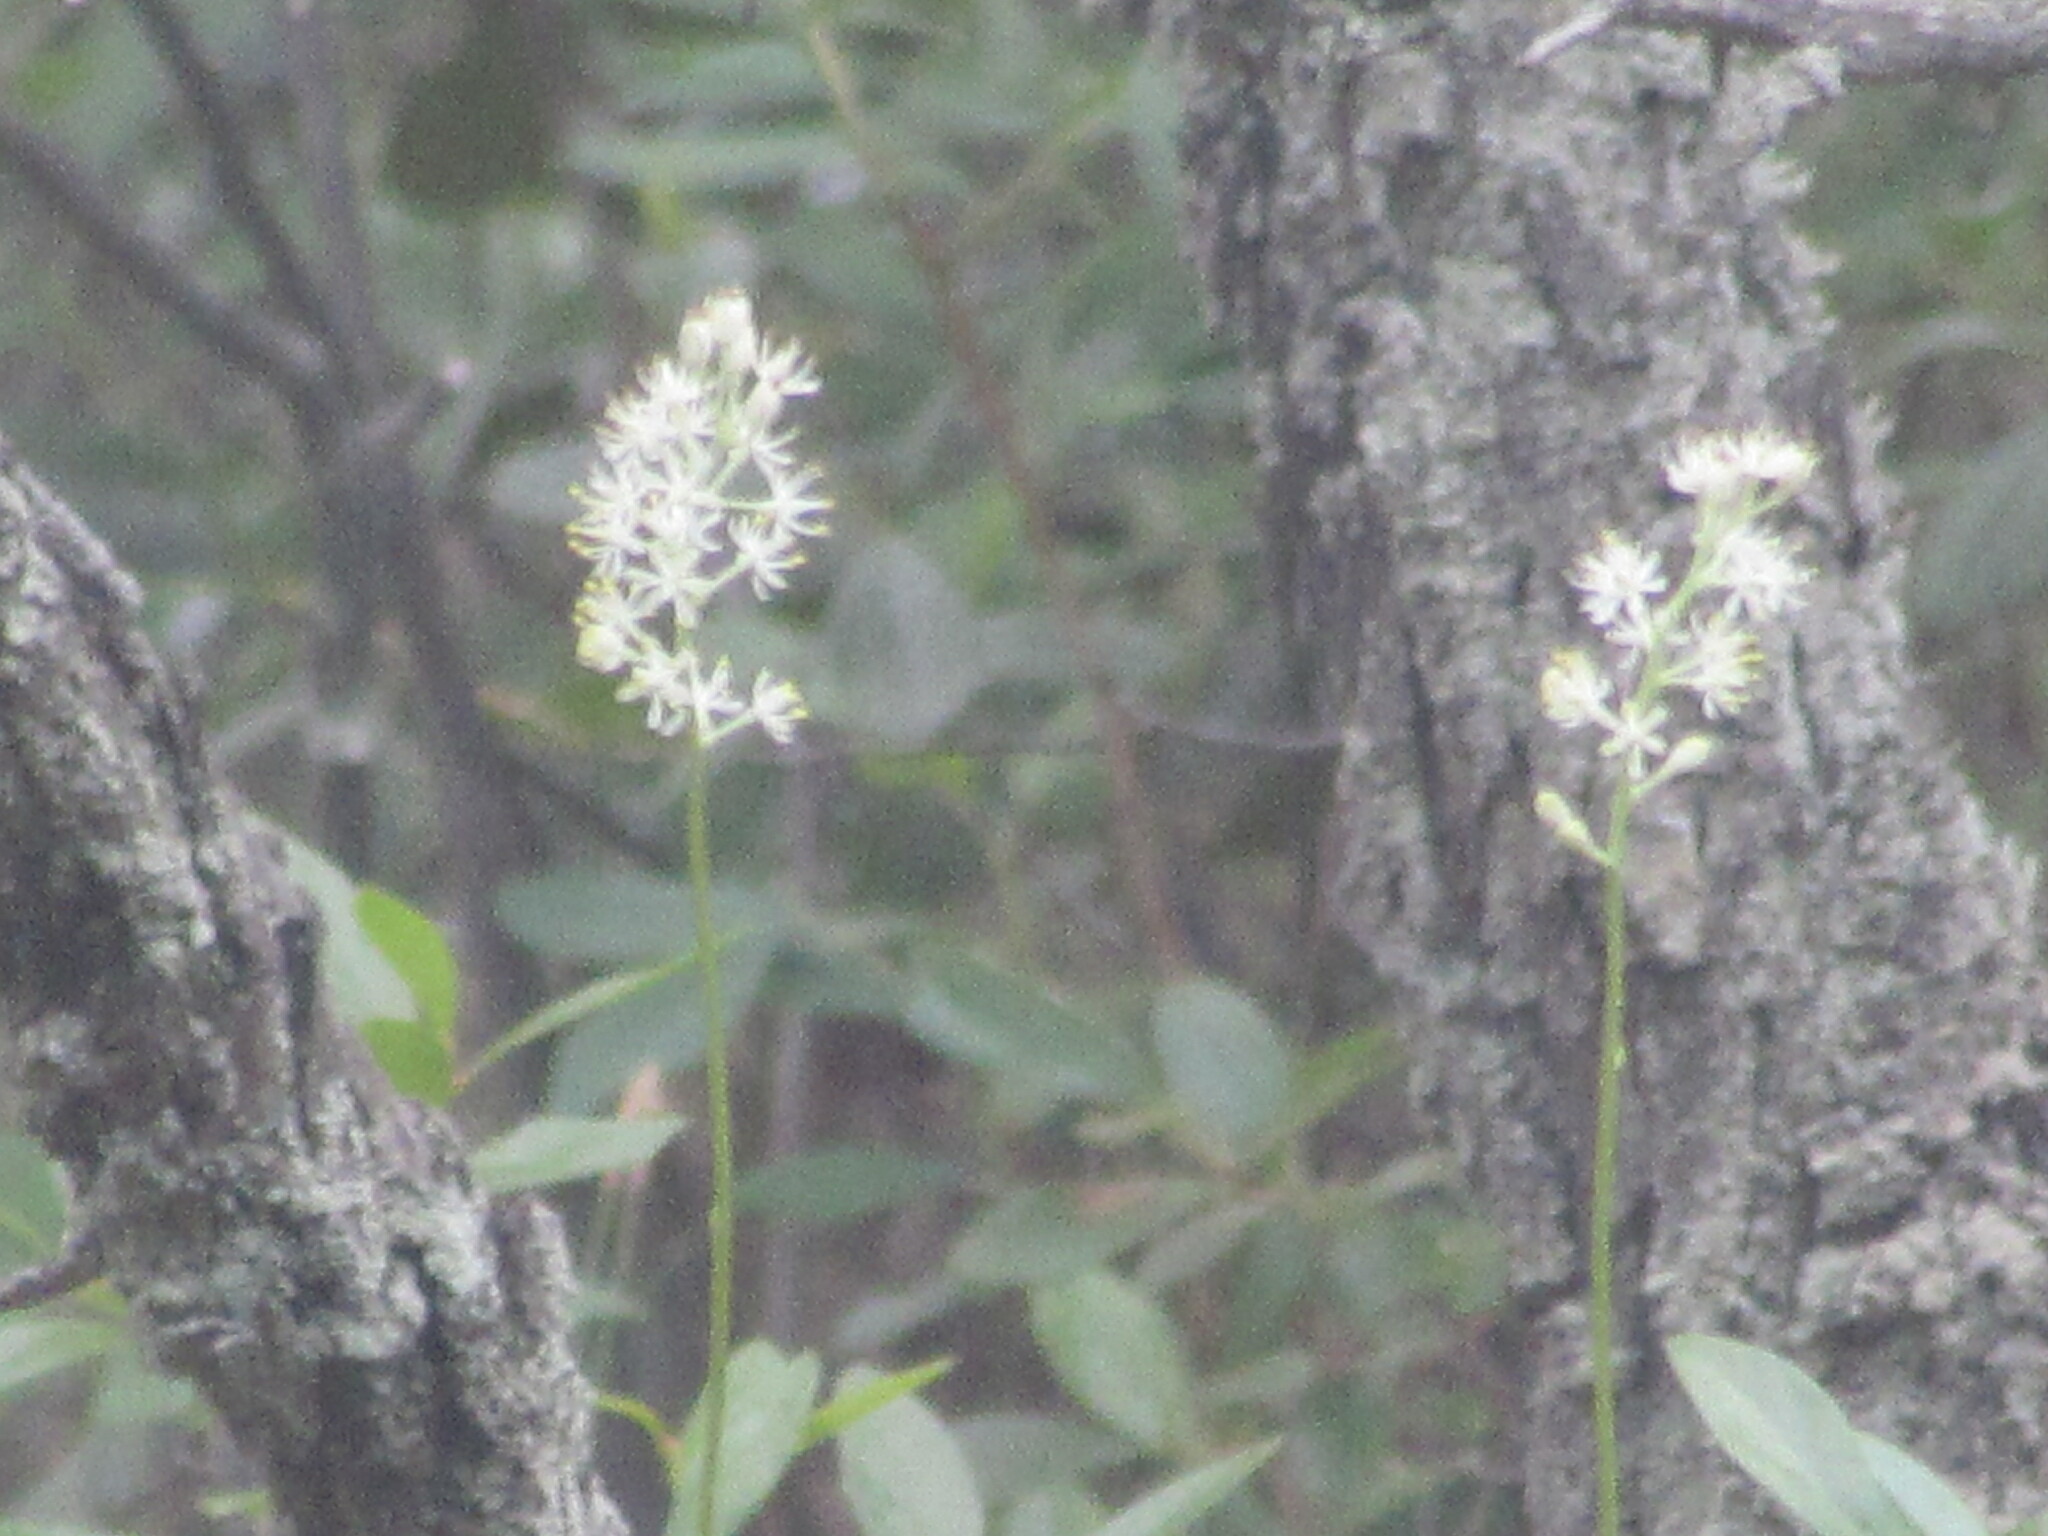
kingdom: Plantae
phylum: Tracheophyta
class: Liliopsida
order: Alismatales
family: Tofieldiaceae
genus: Triantha
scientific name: Triantha racemosa
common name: Coastal false asphodel
